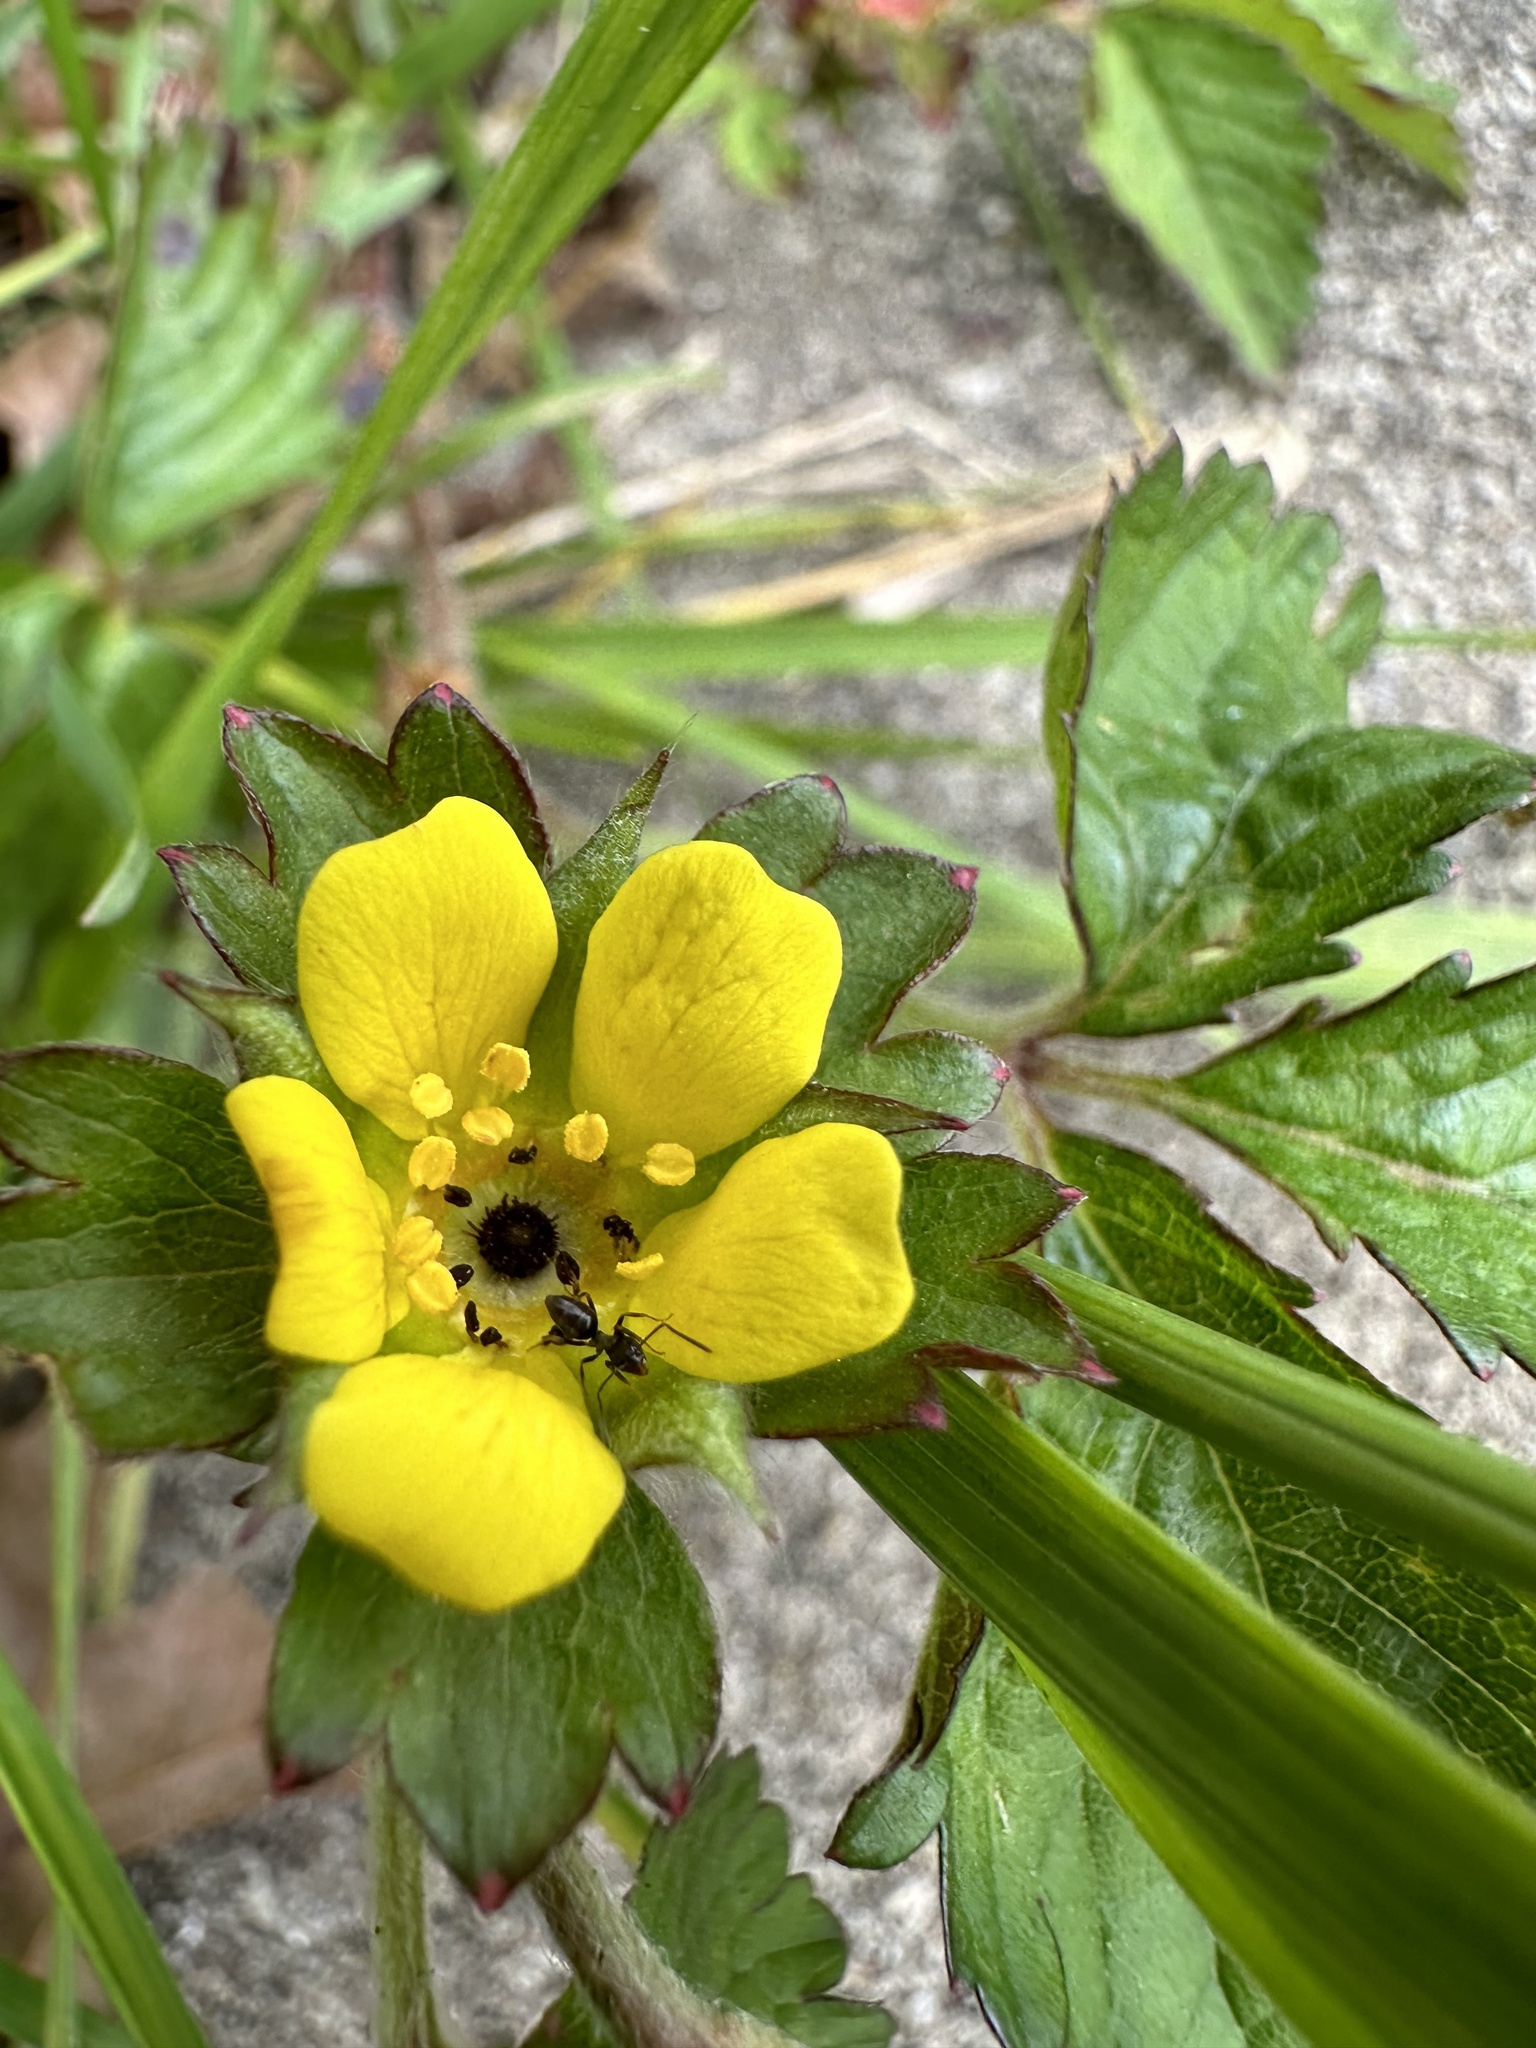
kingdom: Plantae
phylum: Tracheophyta
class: Magnoliopsida
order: Rosales
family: Rosaceae
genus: Potentilla
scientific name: Potentilla indica
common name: Yellow-flowered strawberry
